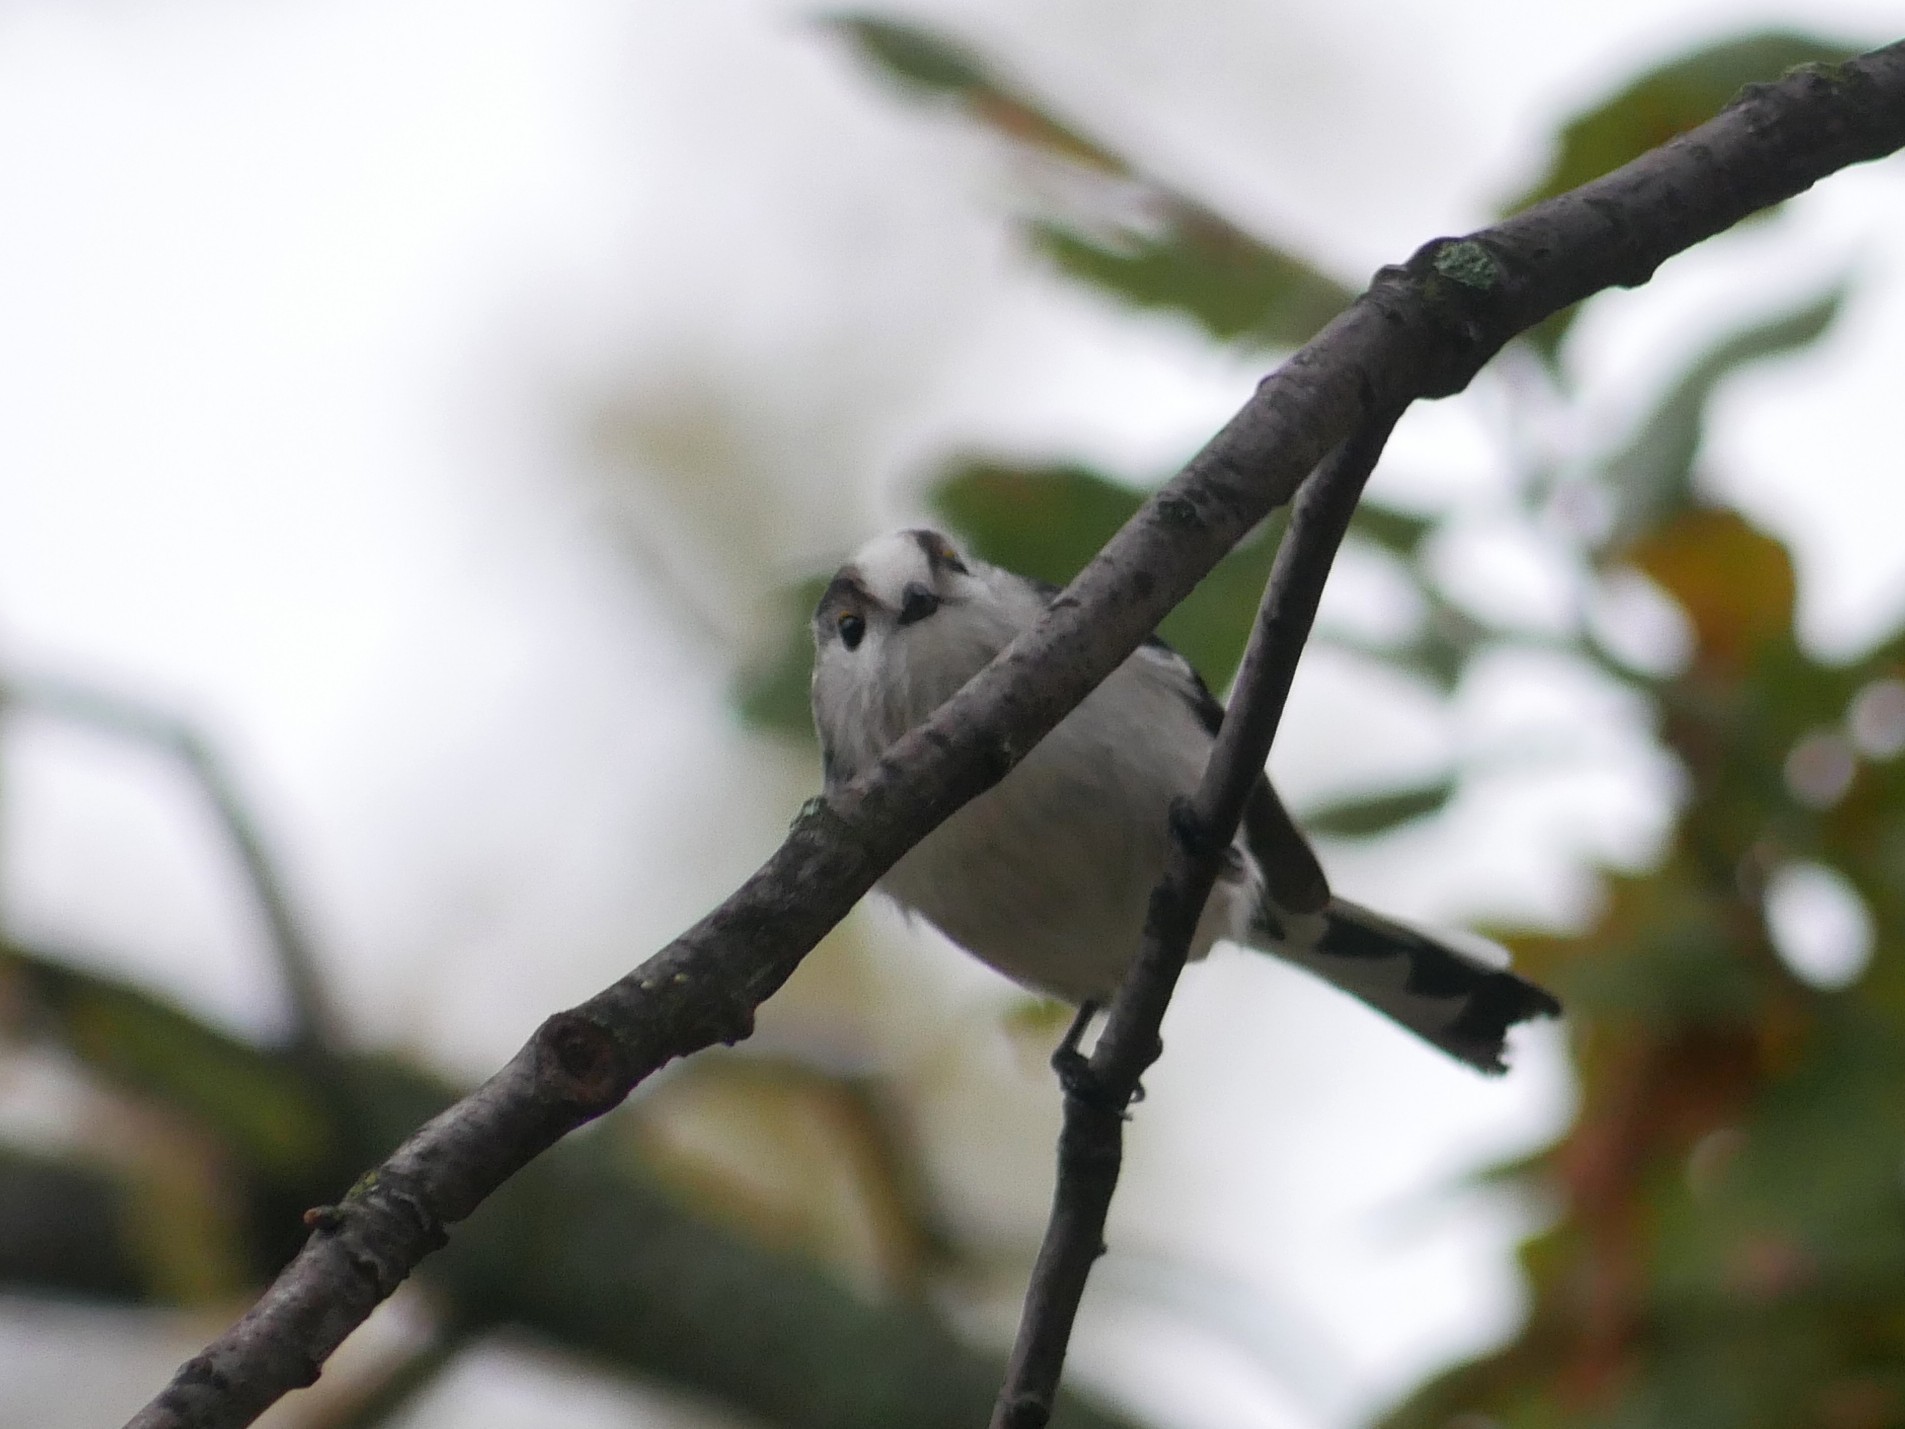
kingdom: Animalia
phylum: Chordata
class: Aves
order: Passeriformes
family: Aegithalidae
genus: Aegithalos
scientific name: Aegithalos caudatus
